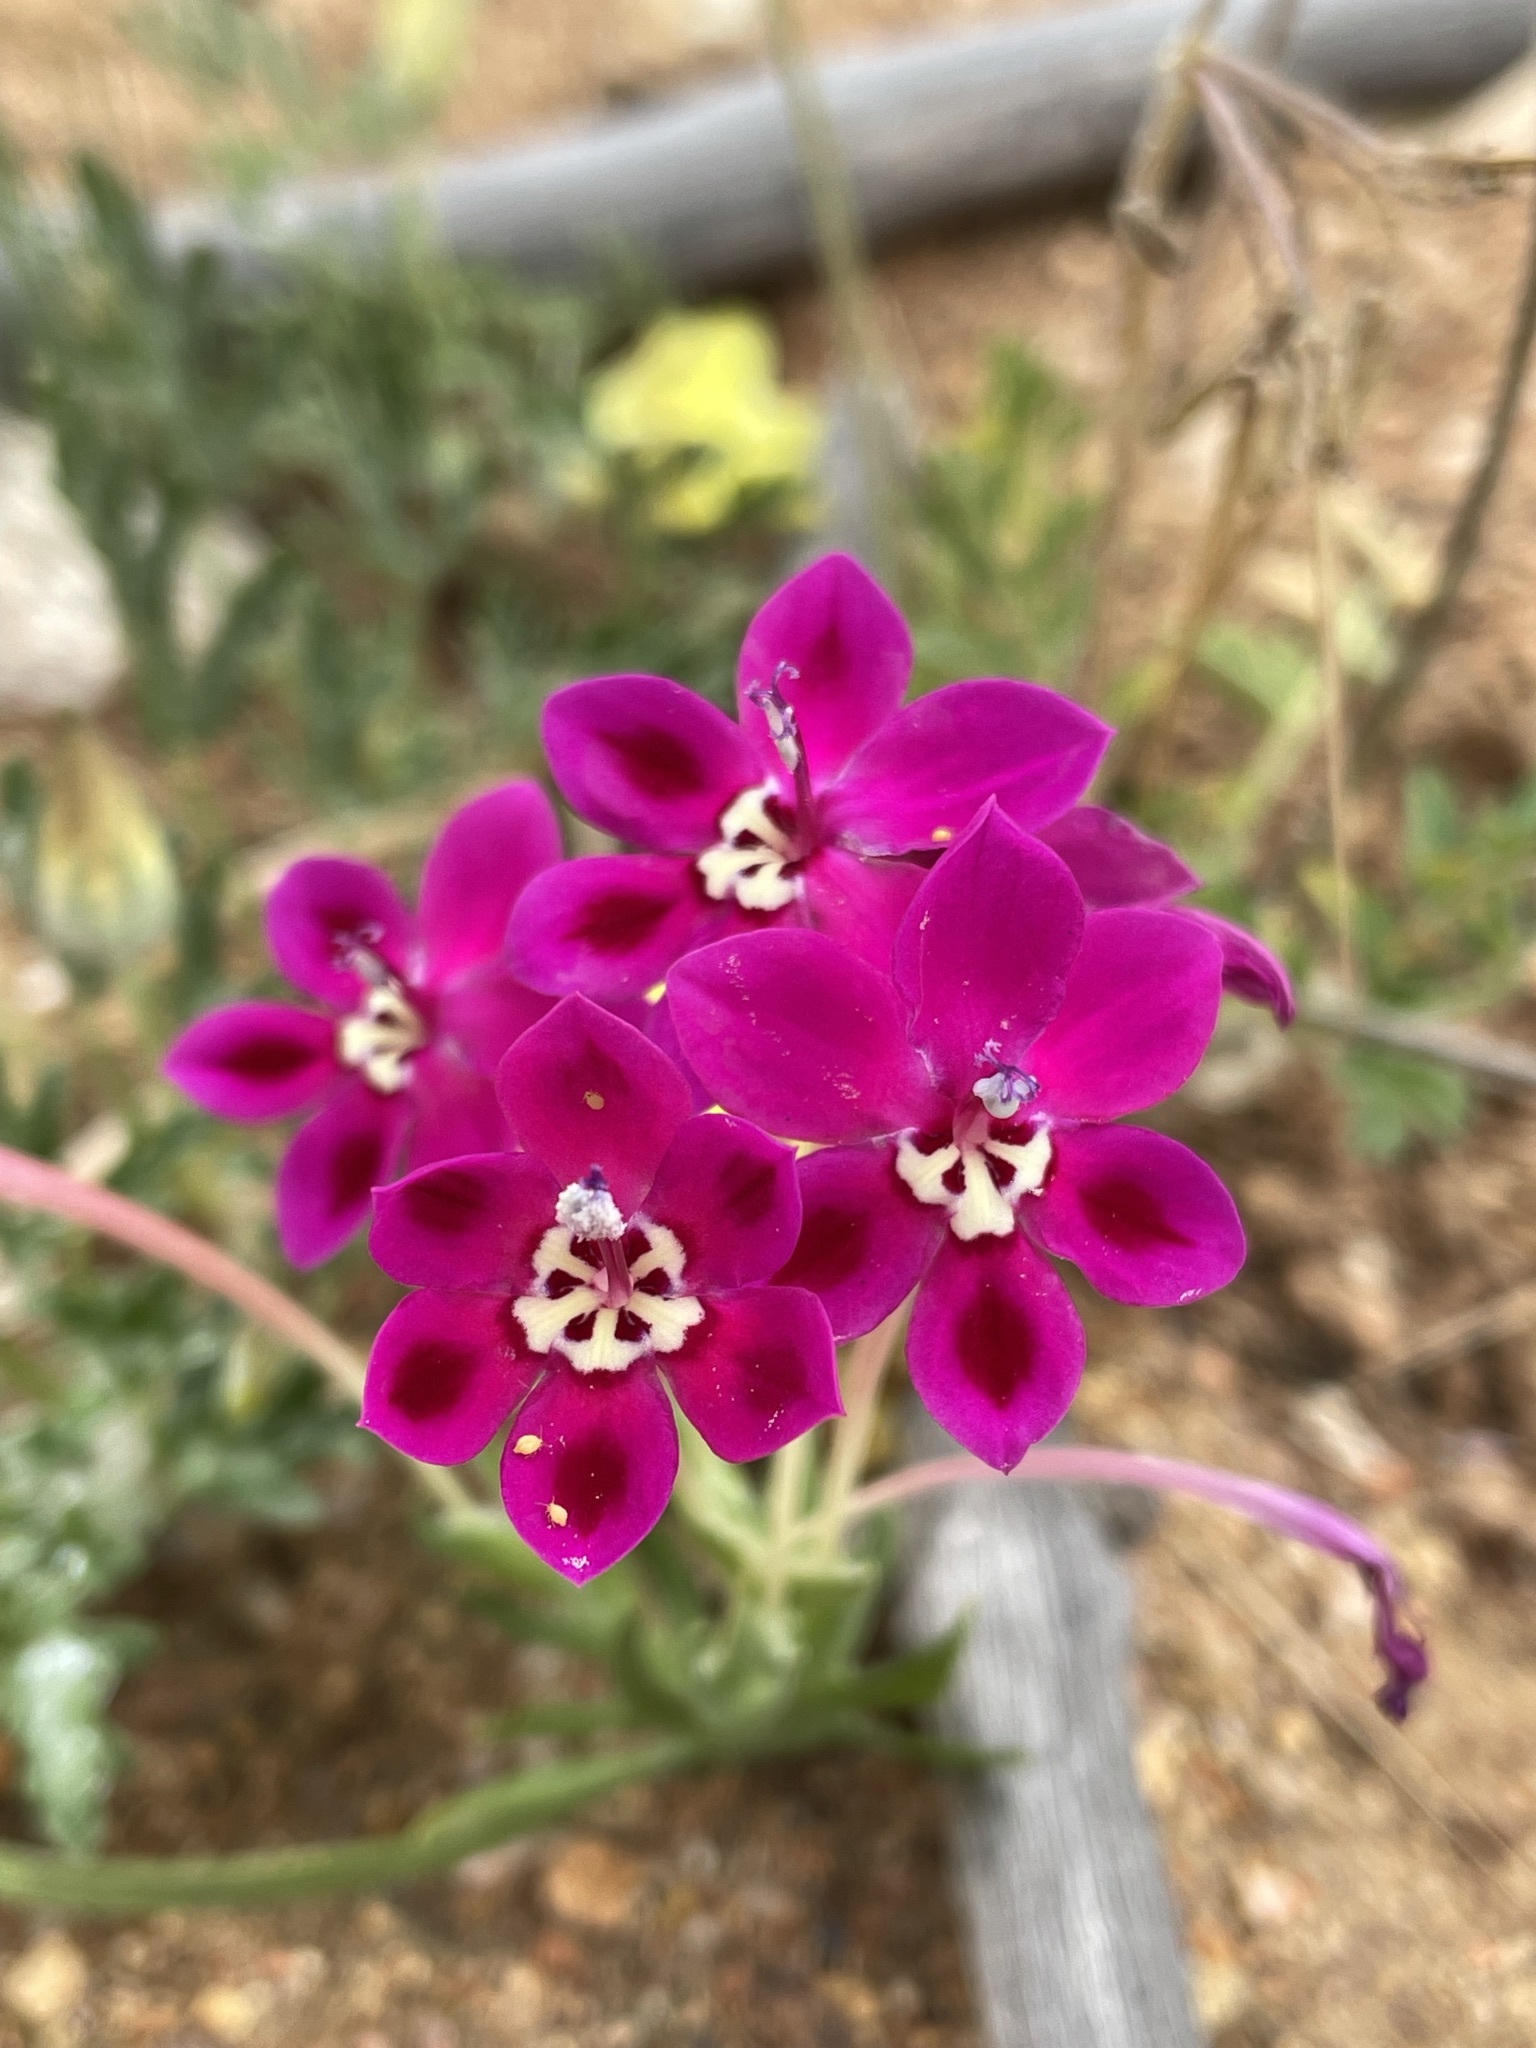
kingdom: Plantae
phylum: Tracheophyta
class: Liliopsida
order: Asparagales
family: Iridaceae
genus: Lapeirousia
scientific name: Lapeirousia silenoides
